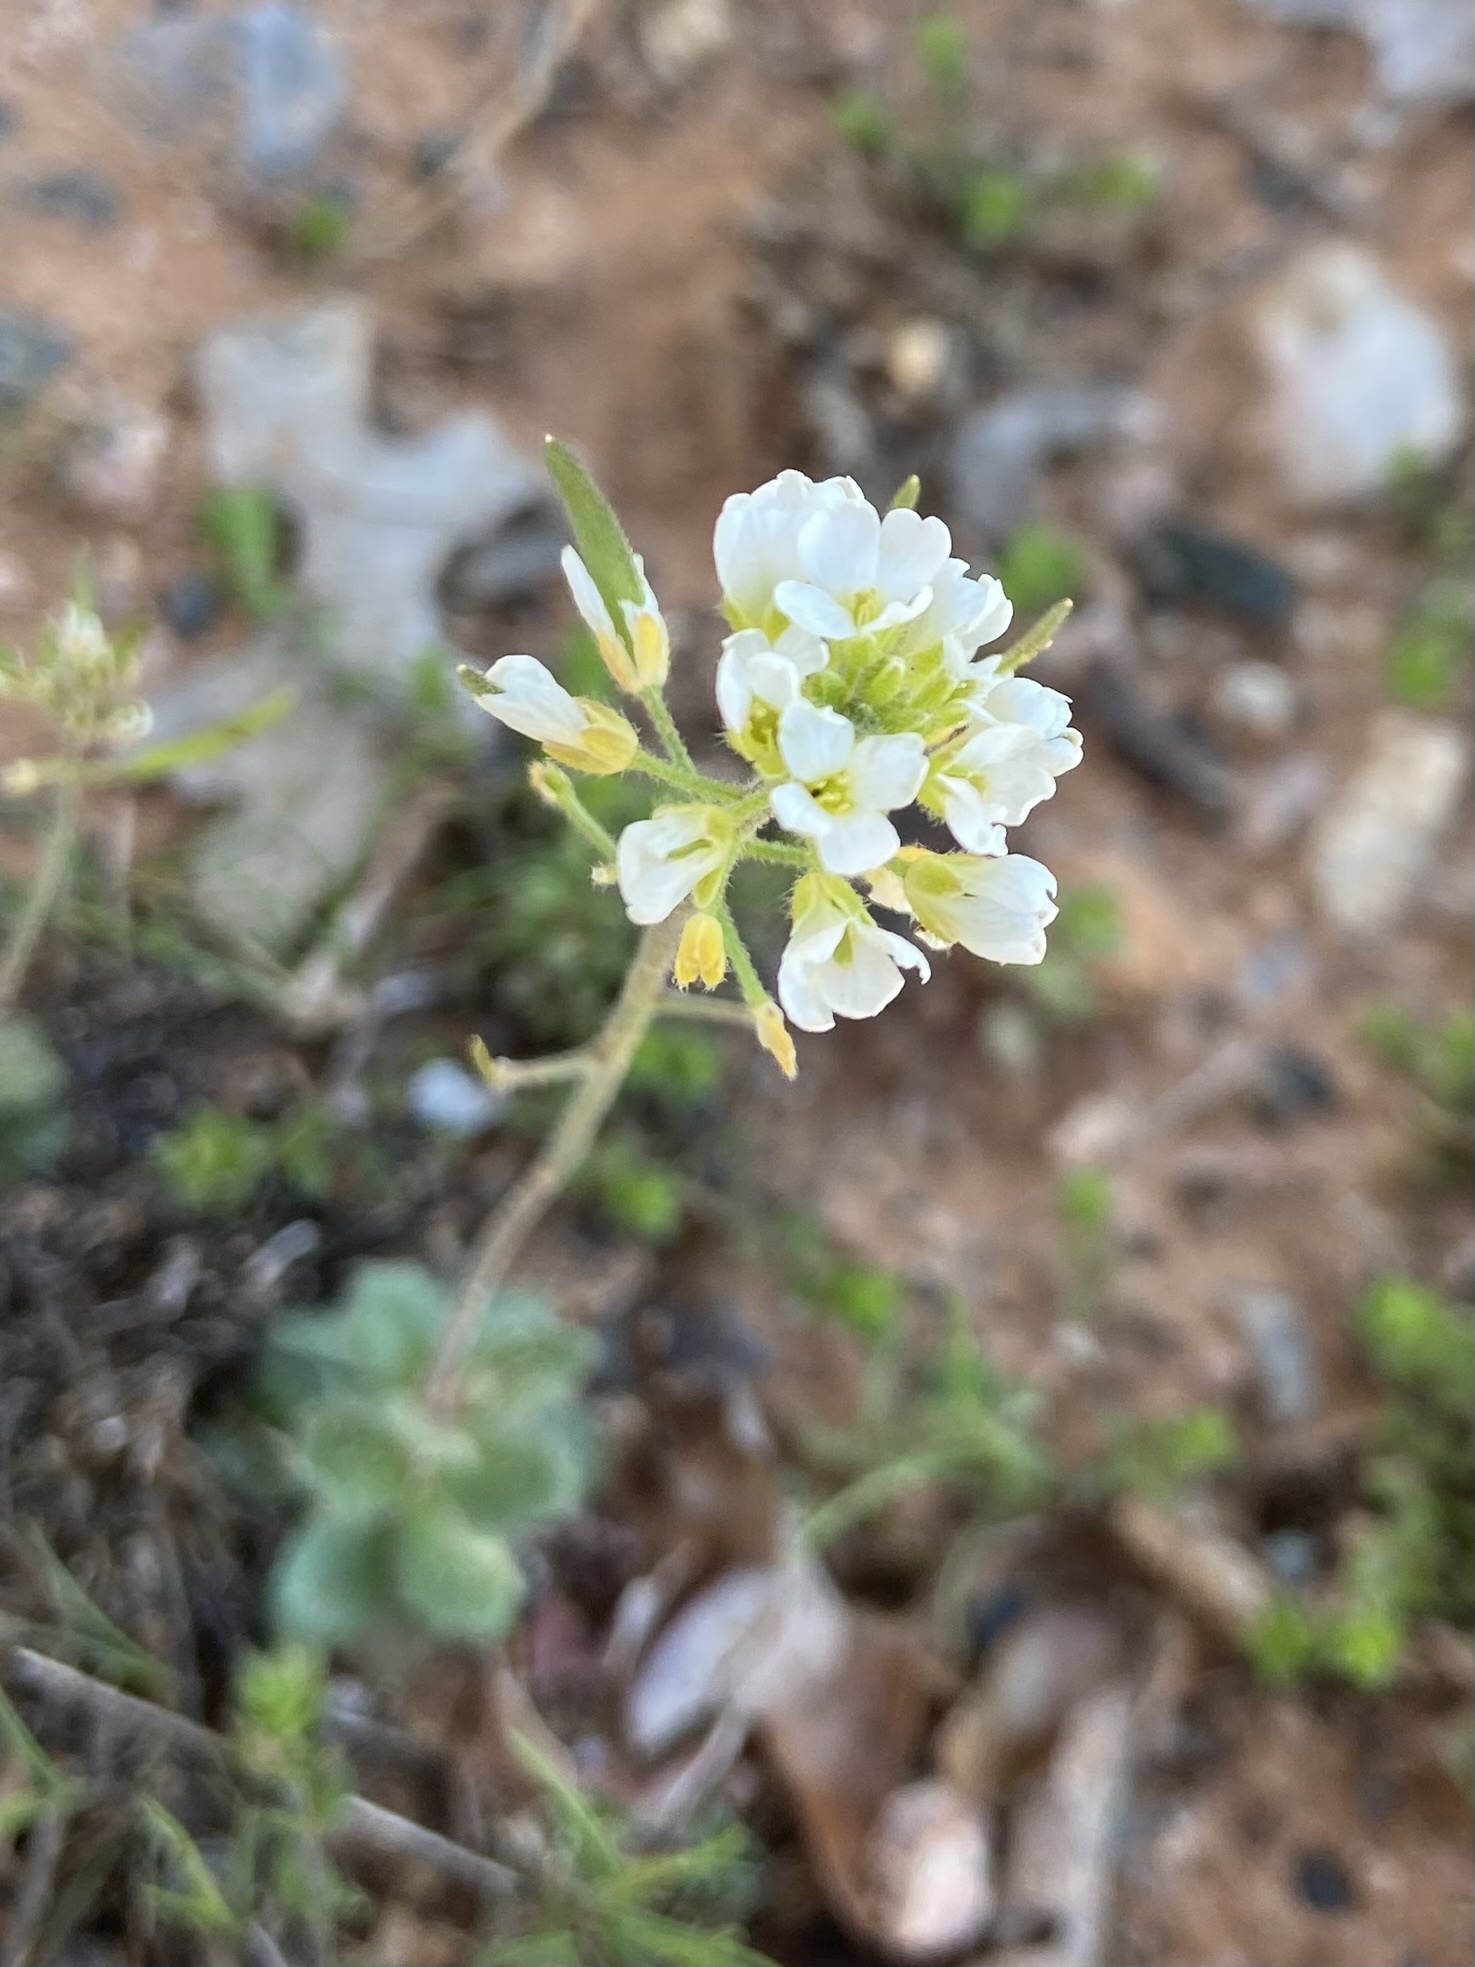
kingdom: Plantae
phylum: Tracheophyta
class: Magnoliopsida
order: Brassicales
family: Brassicaceae
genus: Tomostima
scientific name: Tomostima cuneifolia
